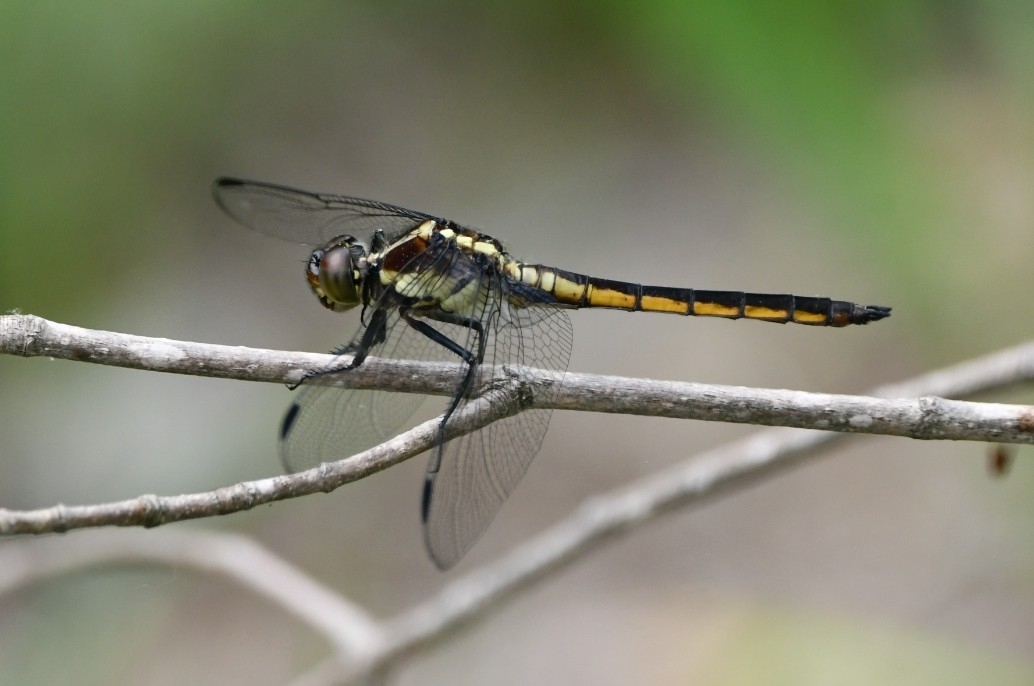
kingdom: Animalia
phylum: Arthropoda
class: Insecta
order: Odonata
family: Libellulidae
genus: Libellula
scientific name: Libellula incesta
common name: Slaty skimmer
